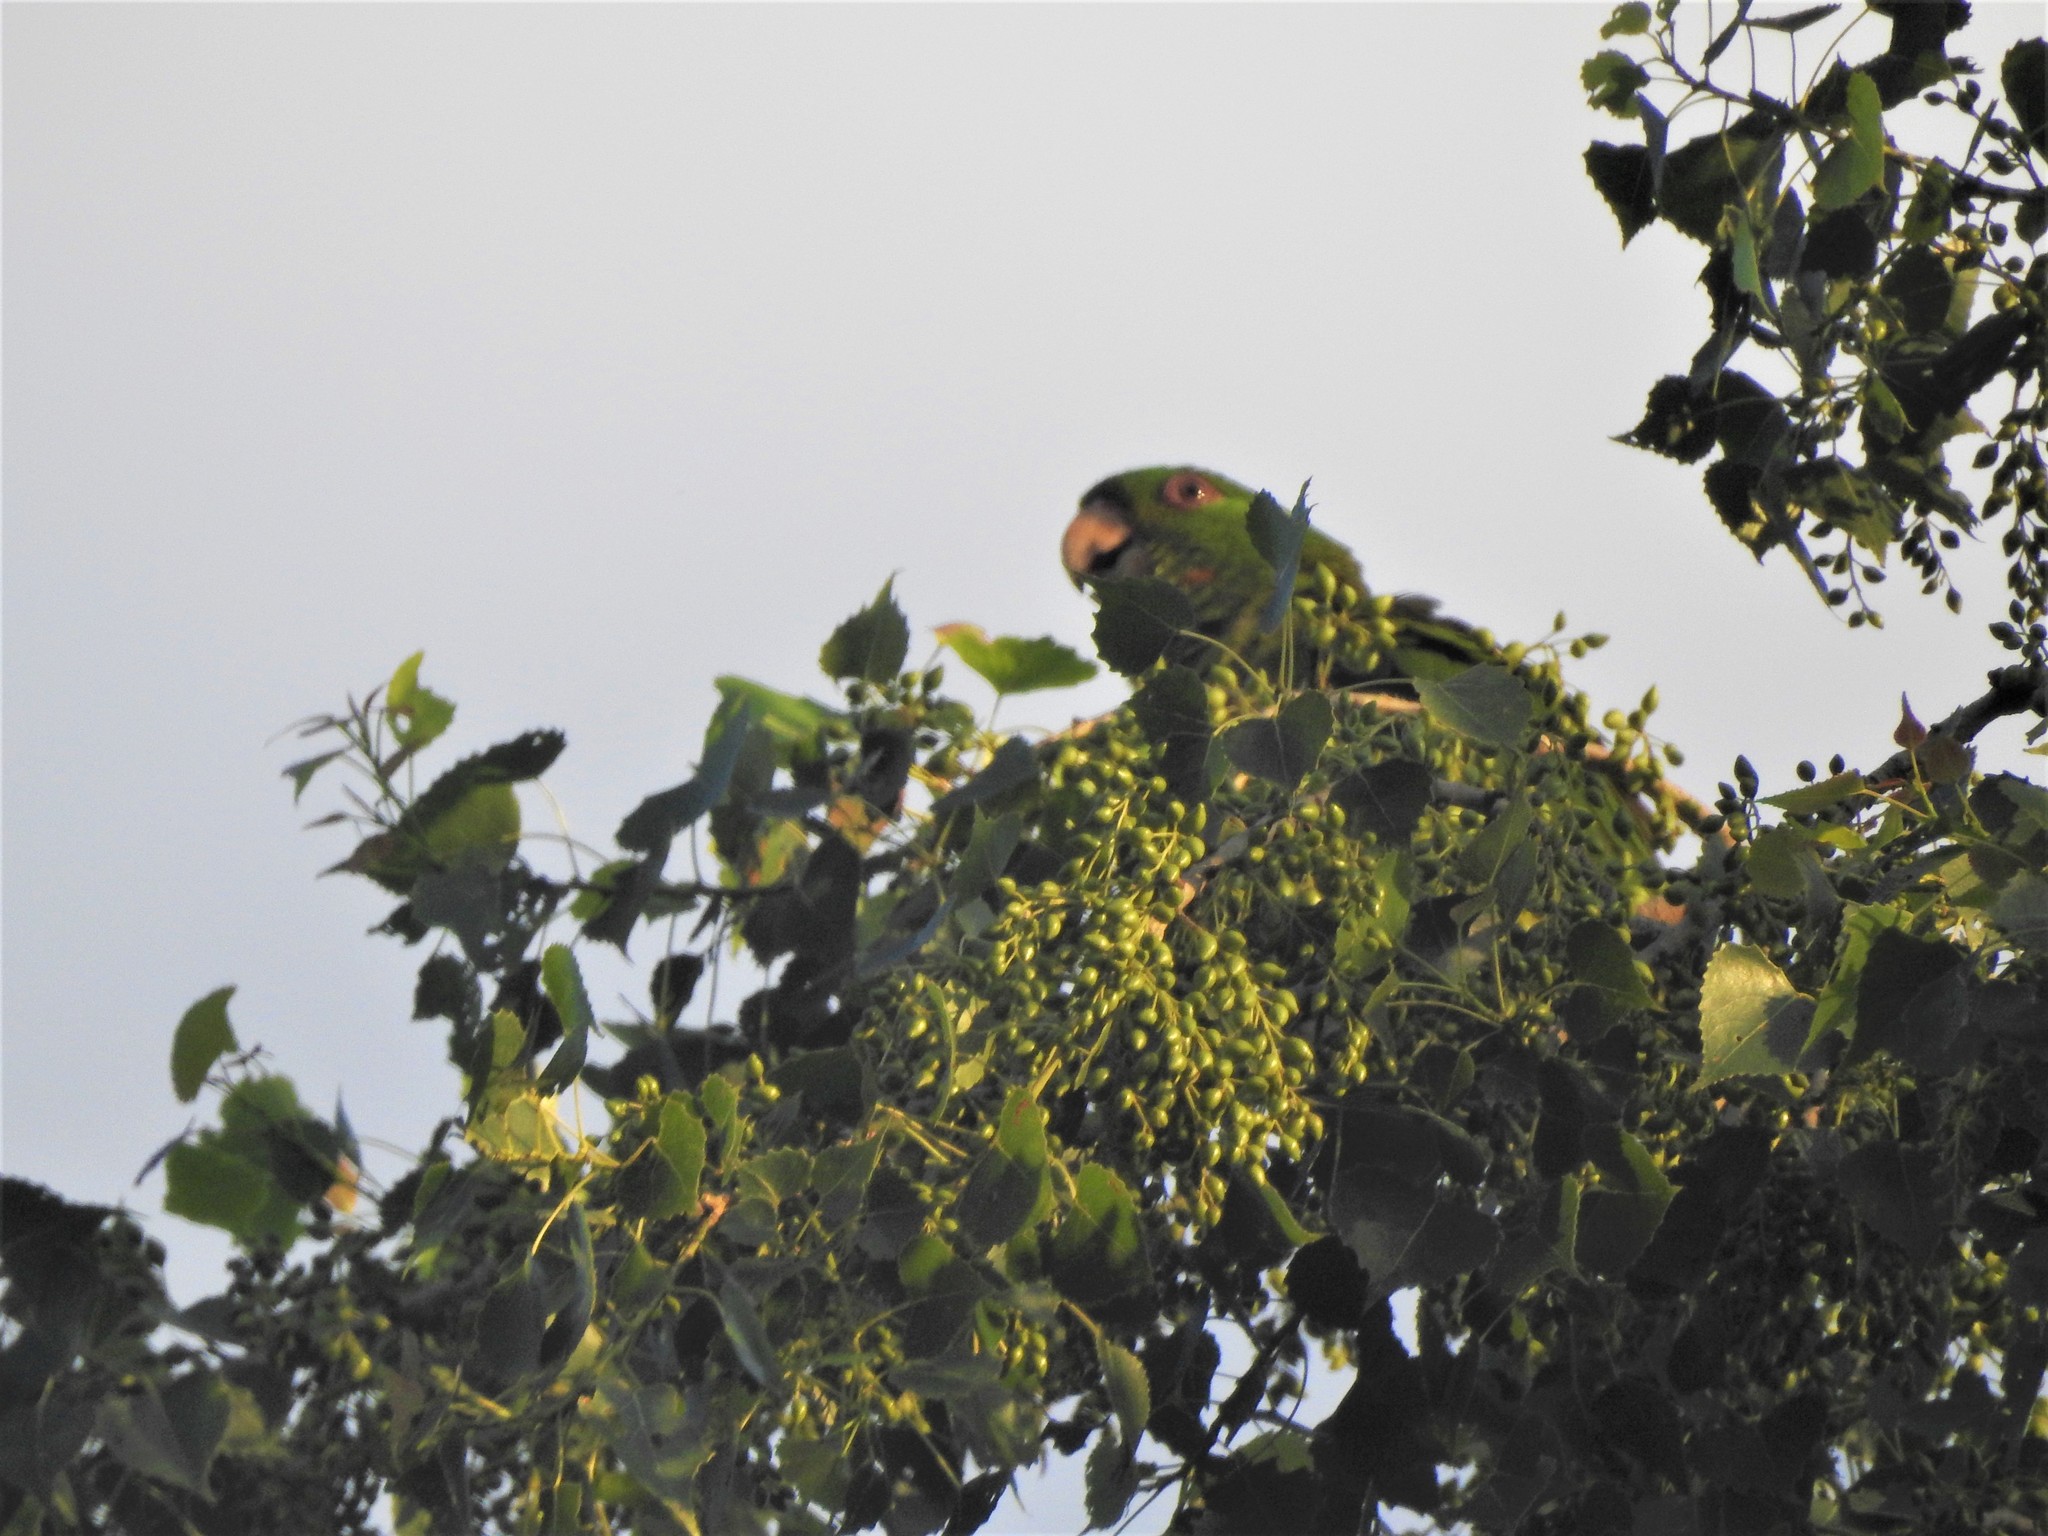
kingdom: Animalia
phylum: Chordata
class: Aves
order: Psittaciformes
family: Psittacidae
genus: Aratinga
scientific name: Aratinga holochlora
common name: Green parakeet
